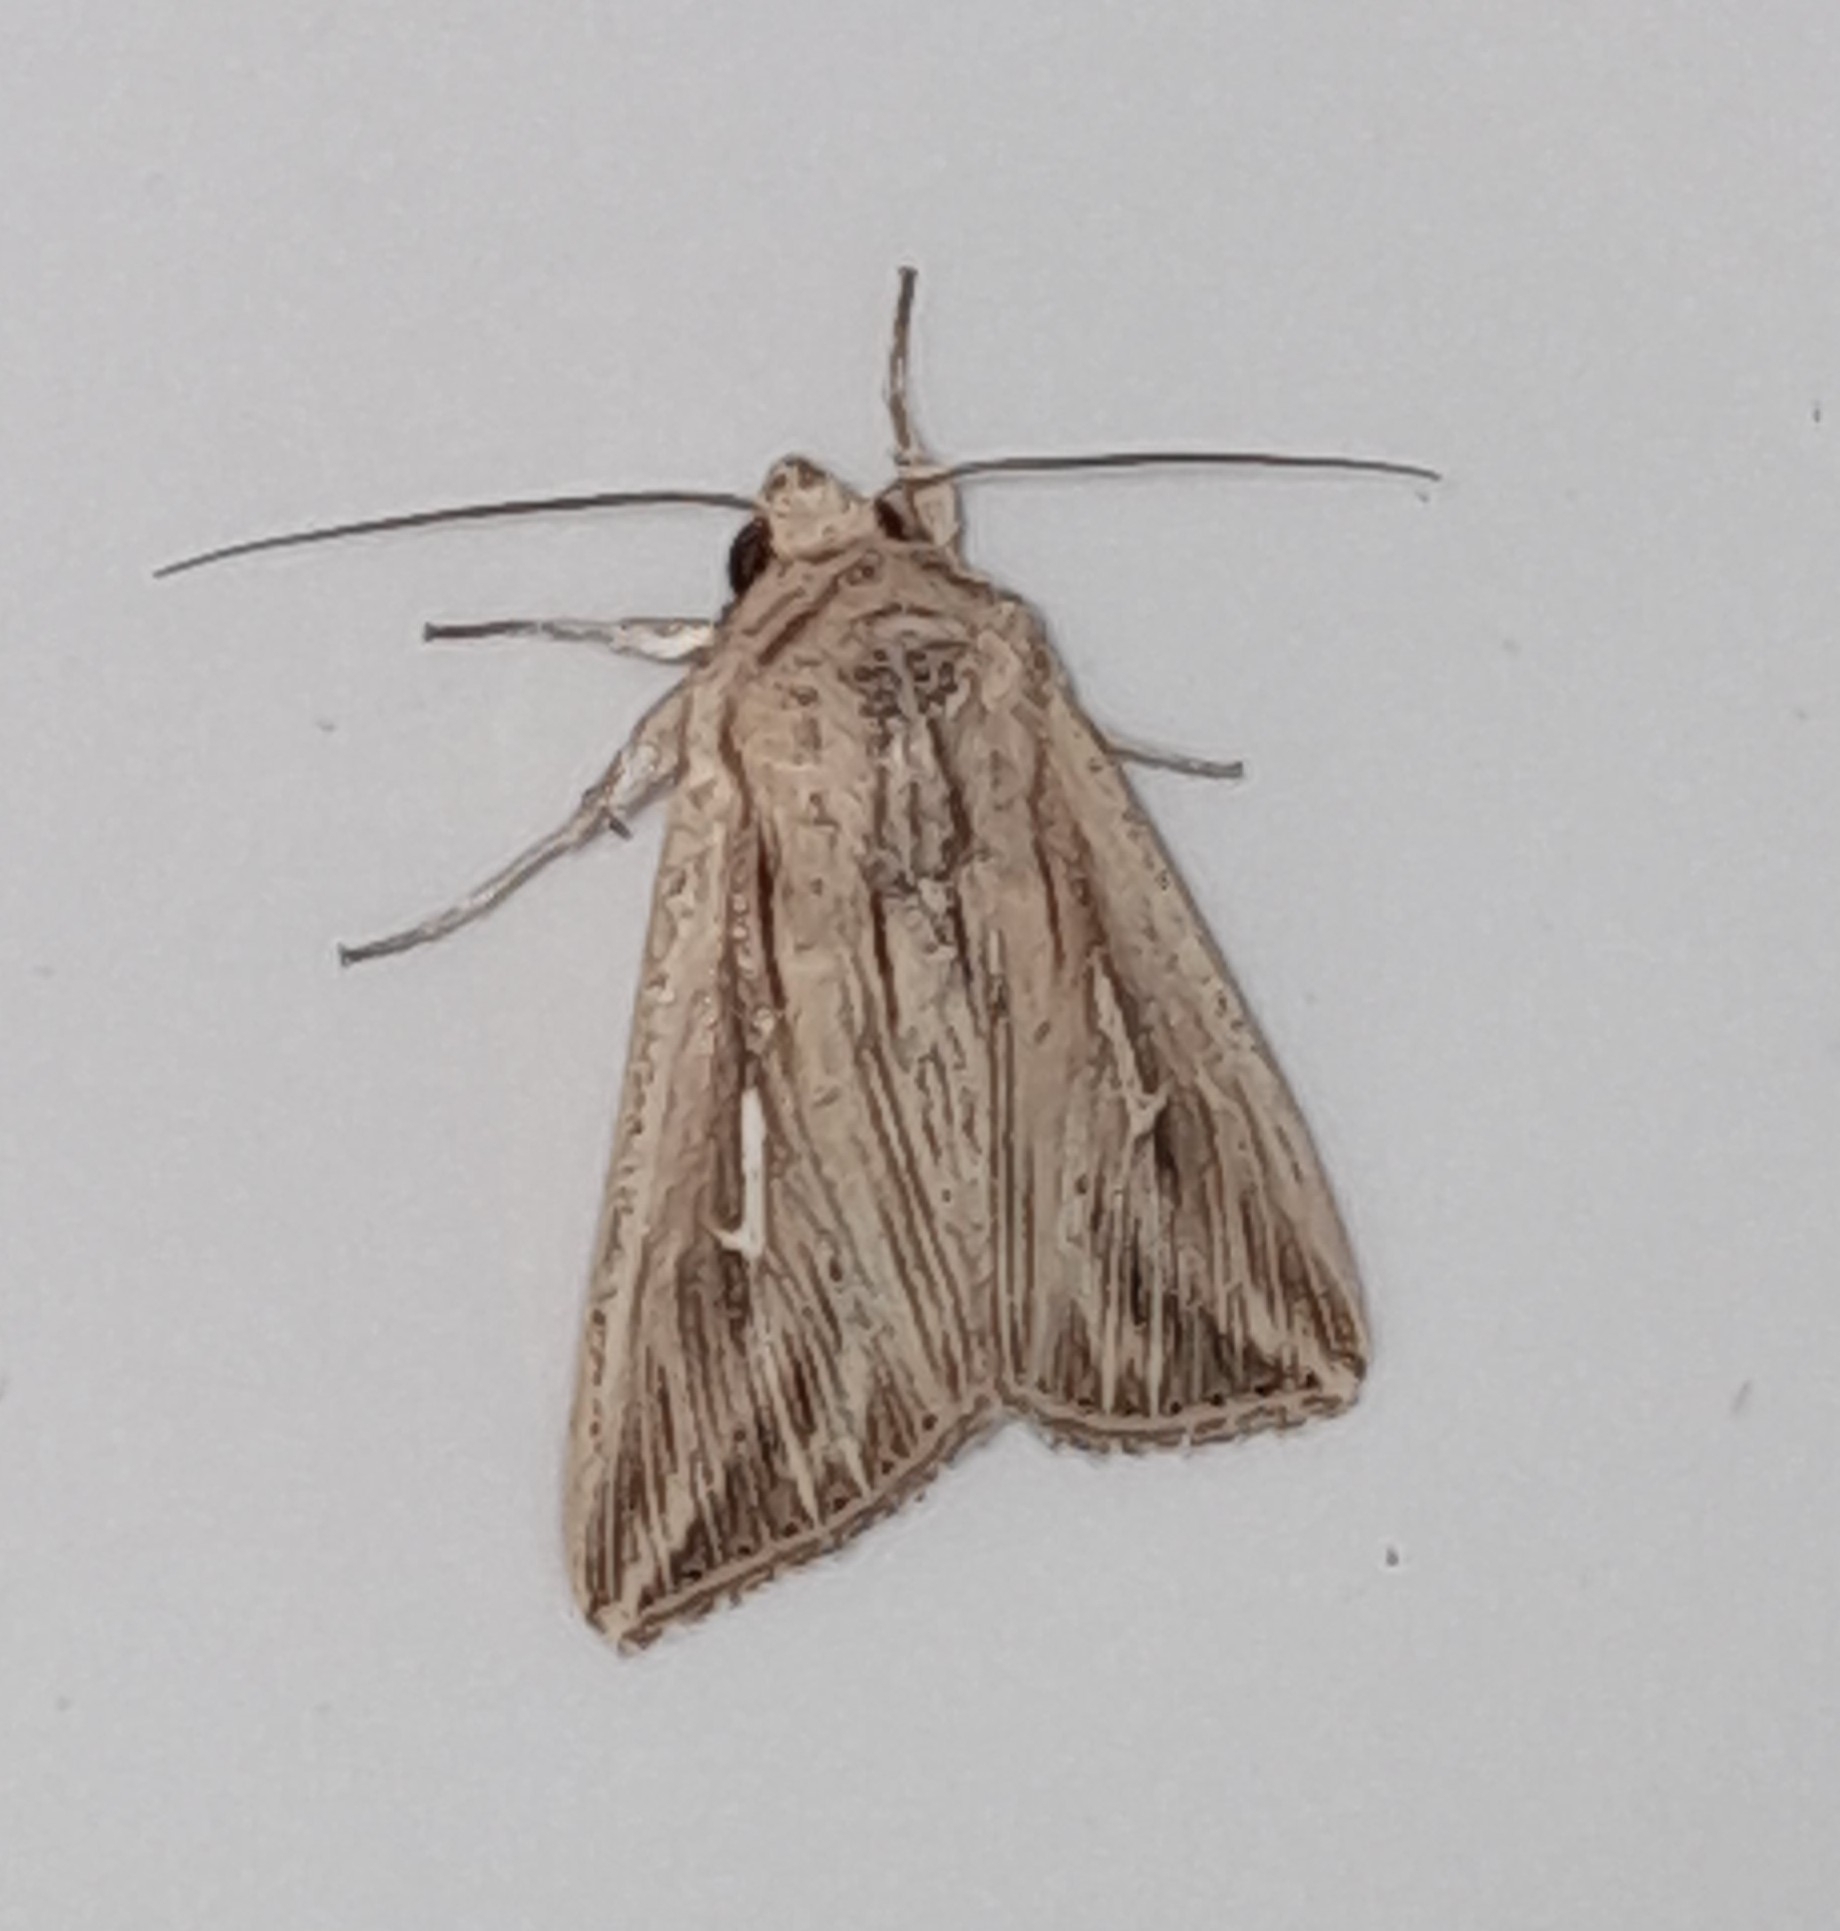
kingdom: Animalia
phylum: Arthropoda
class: Insecta
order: Lepidoptera
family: Noctuidae
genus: Mythimna
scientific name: Mythimna l-album
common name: L-album wainscot
